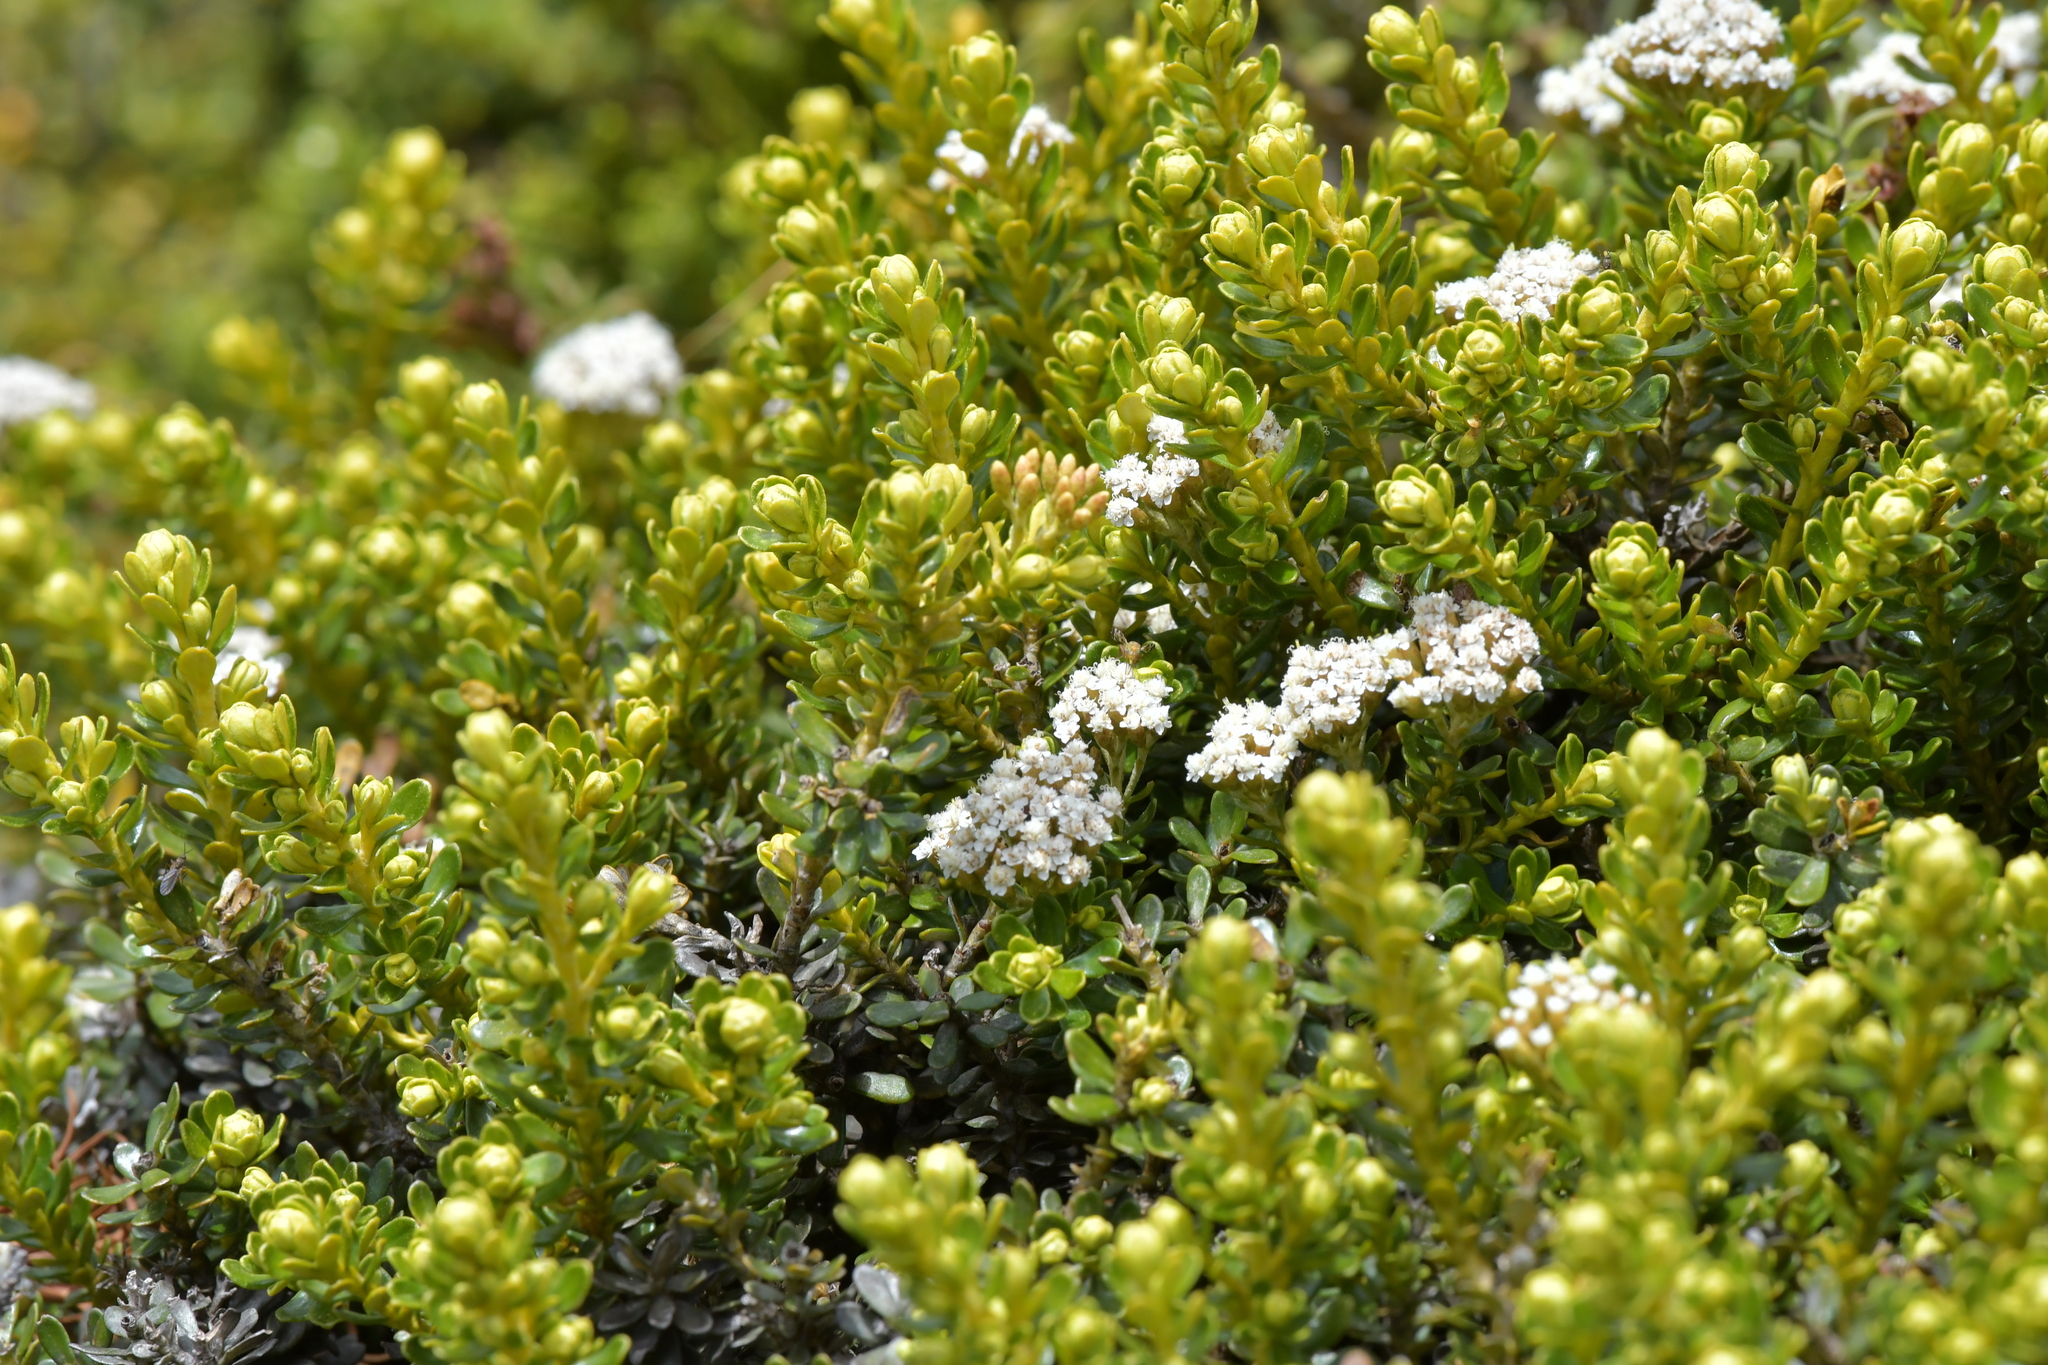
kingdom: Plantae
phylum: Tracheophyta
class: Magnoliopsida
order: Asterales
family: Asteraceae
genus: Ozothamnus
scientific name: Ozothamnus leptophyllus
